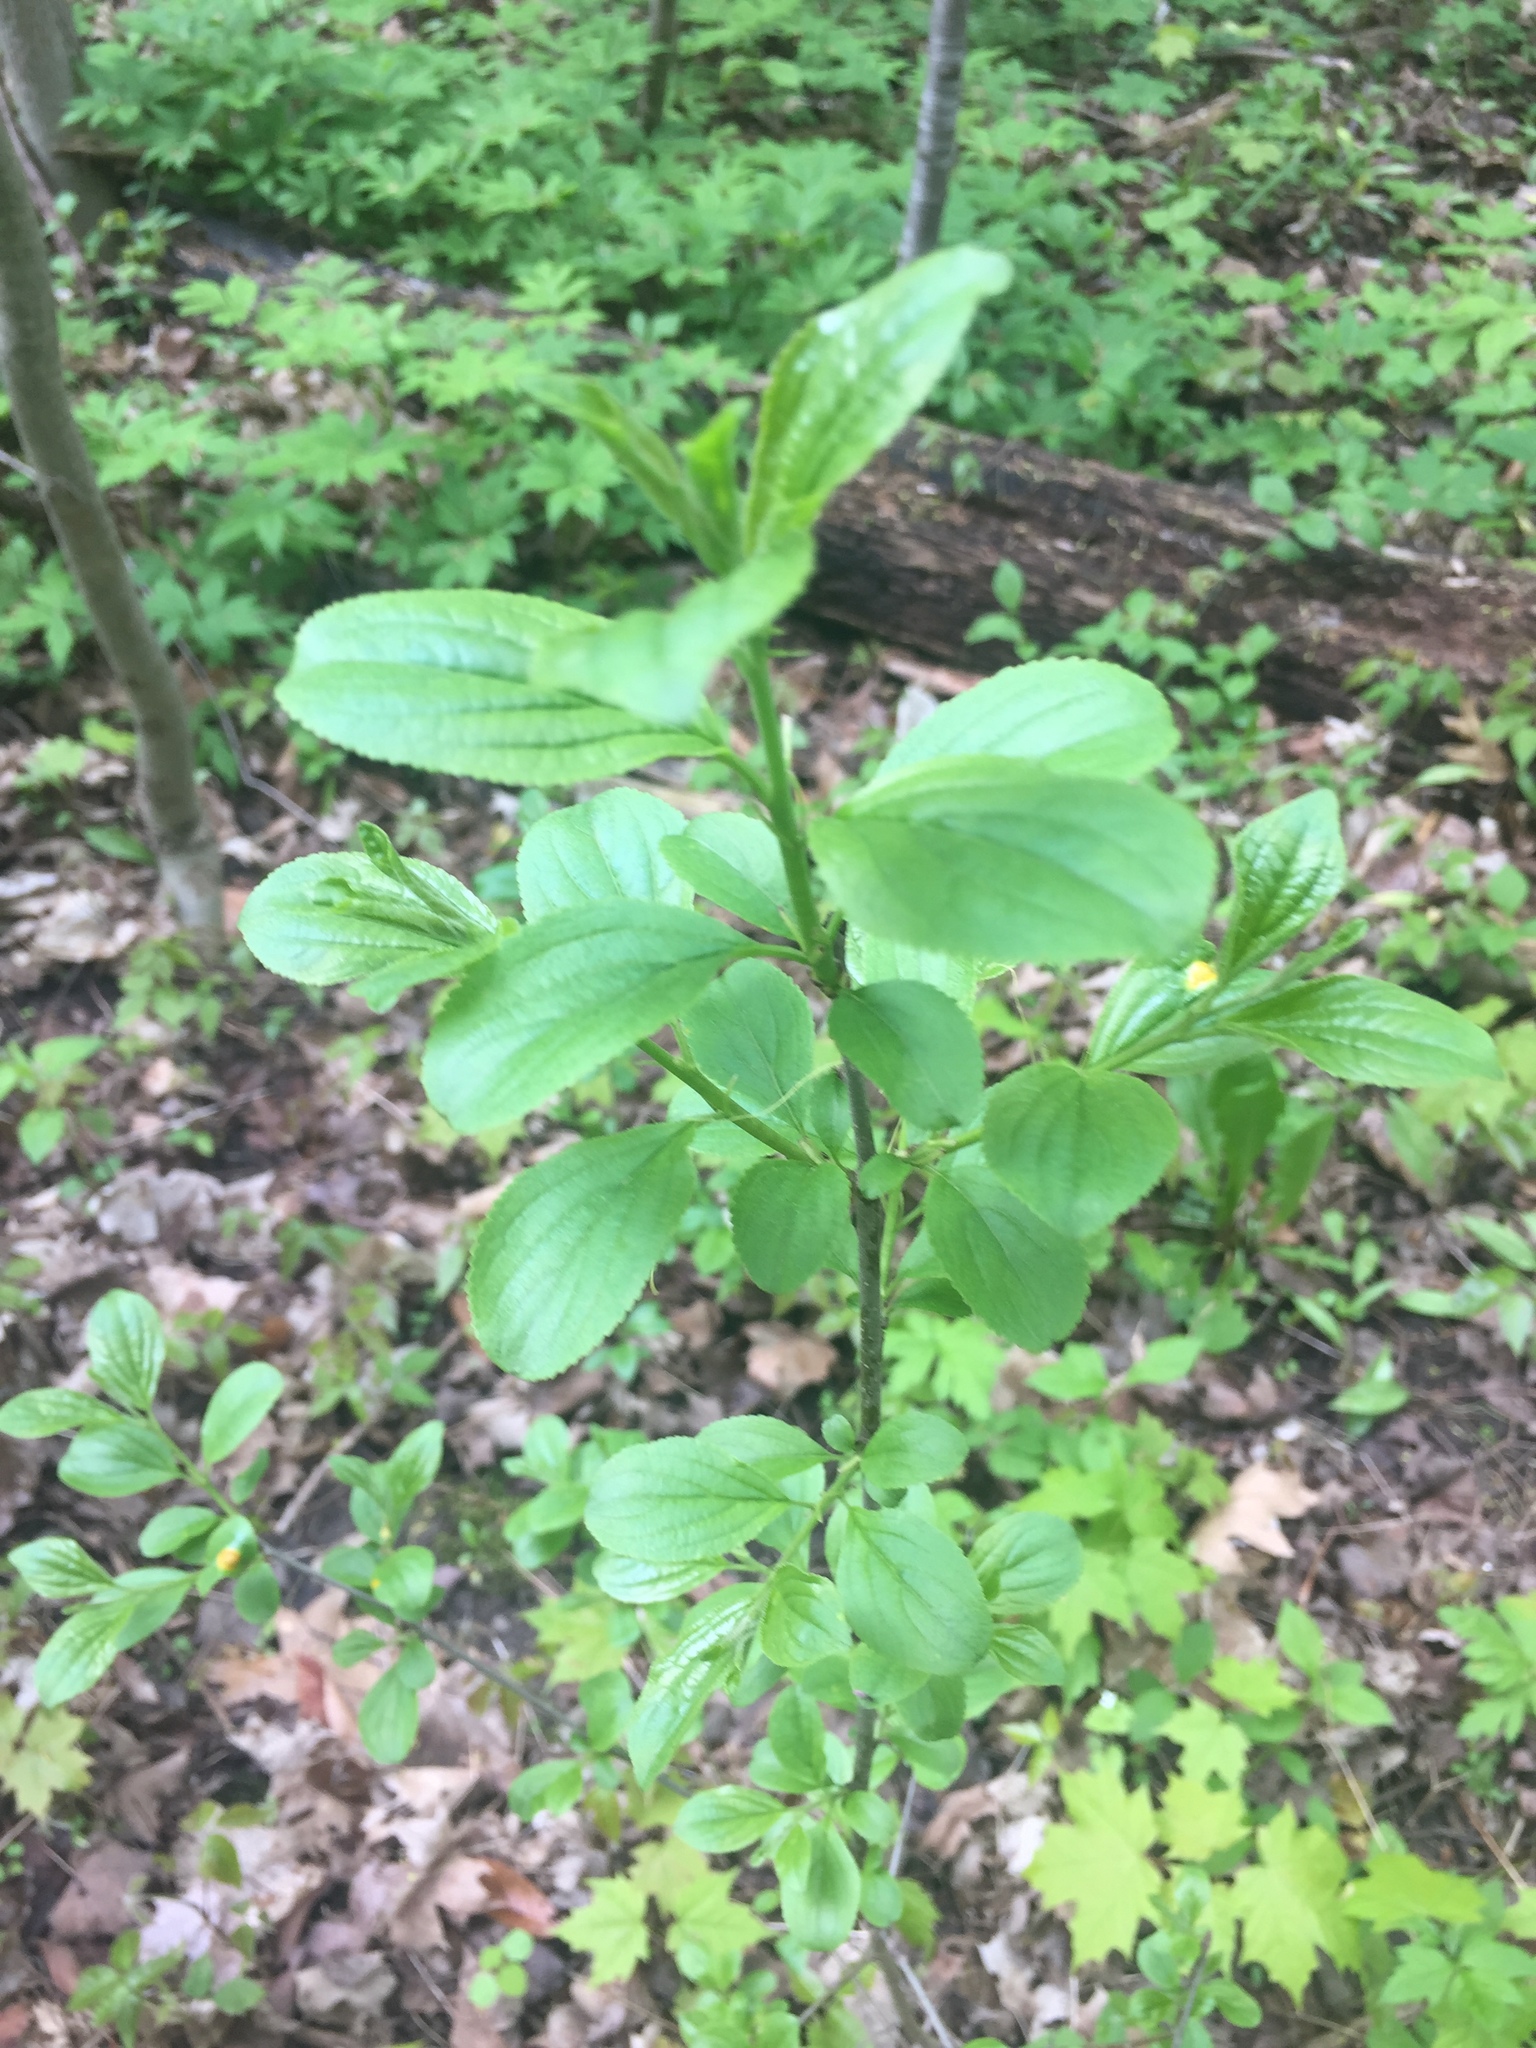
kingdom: Plantae
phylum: Tracheophyta
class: Magnoliopsida
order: Rosales
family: Rhamnaceae
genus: Rhamnus
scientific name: Rhamnus cathartica
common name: Common buckthorn
